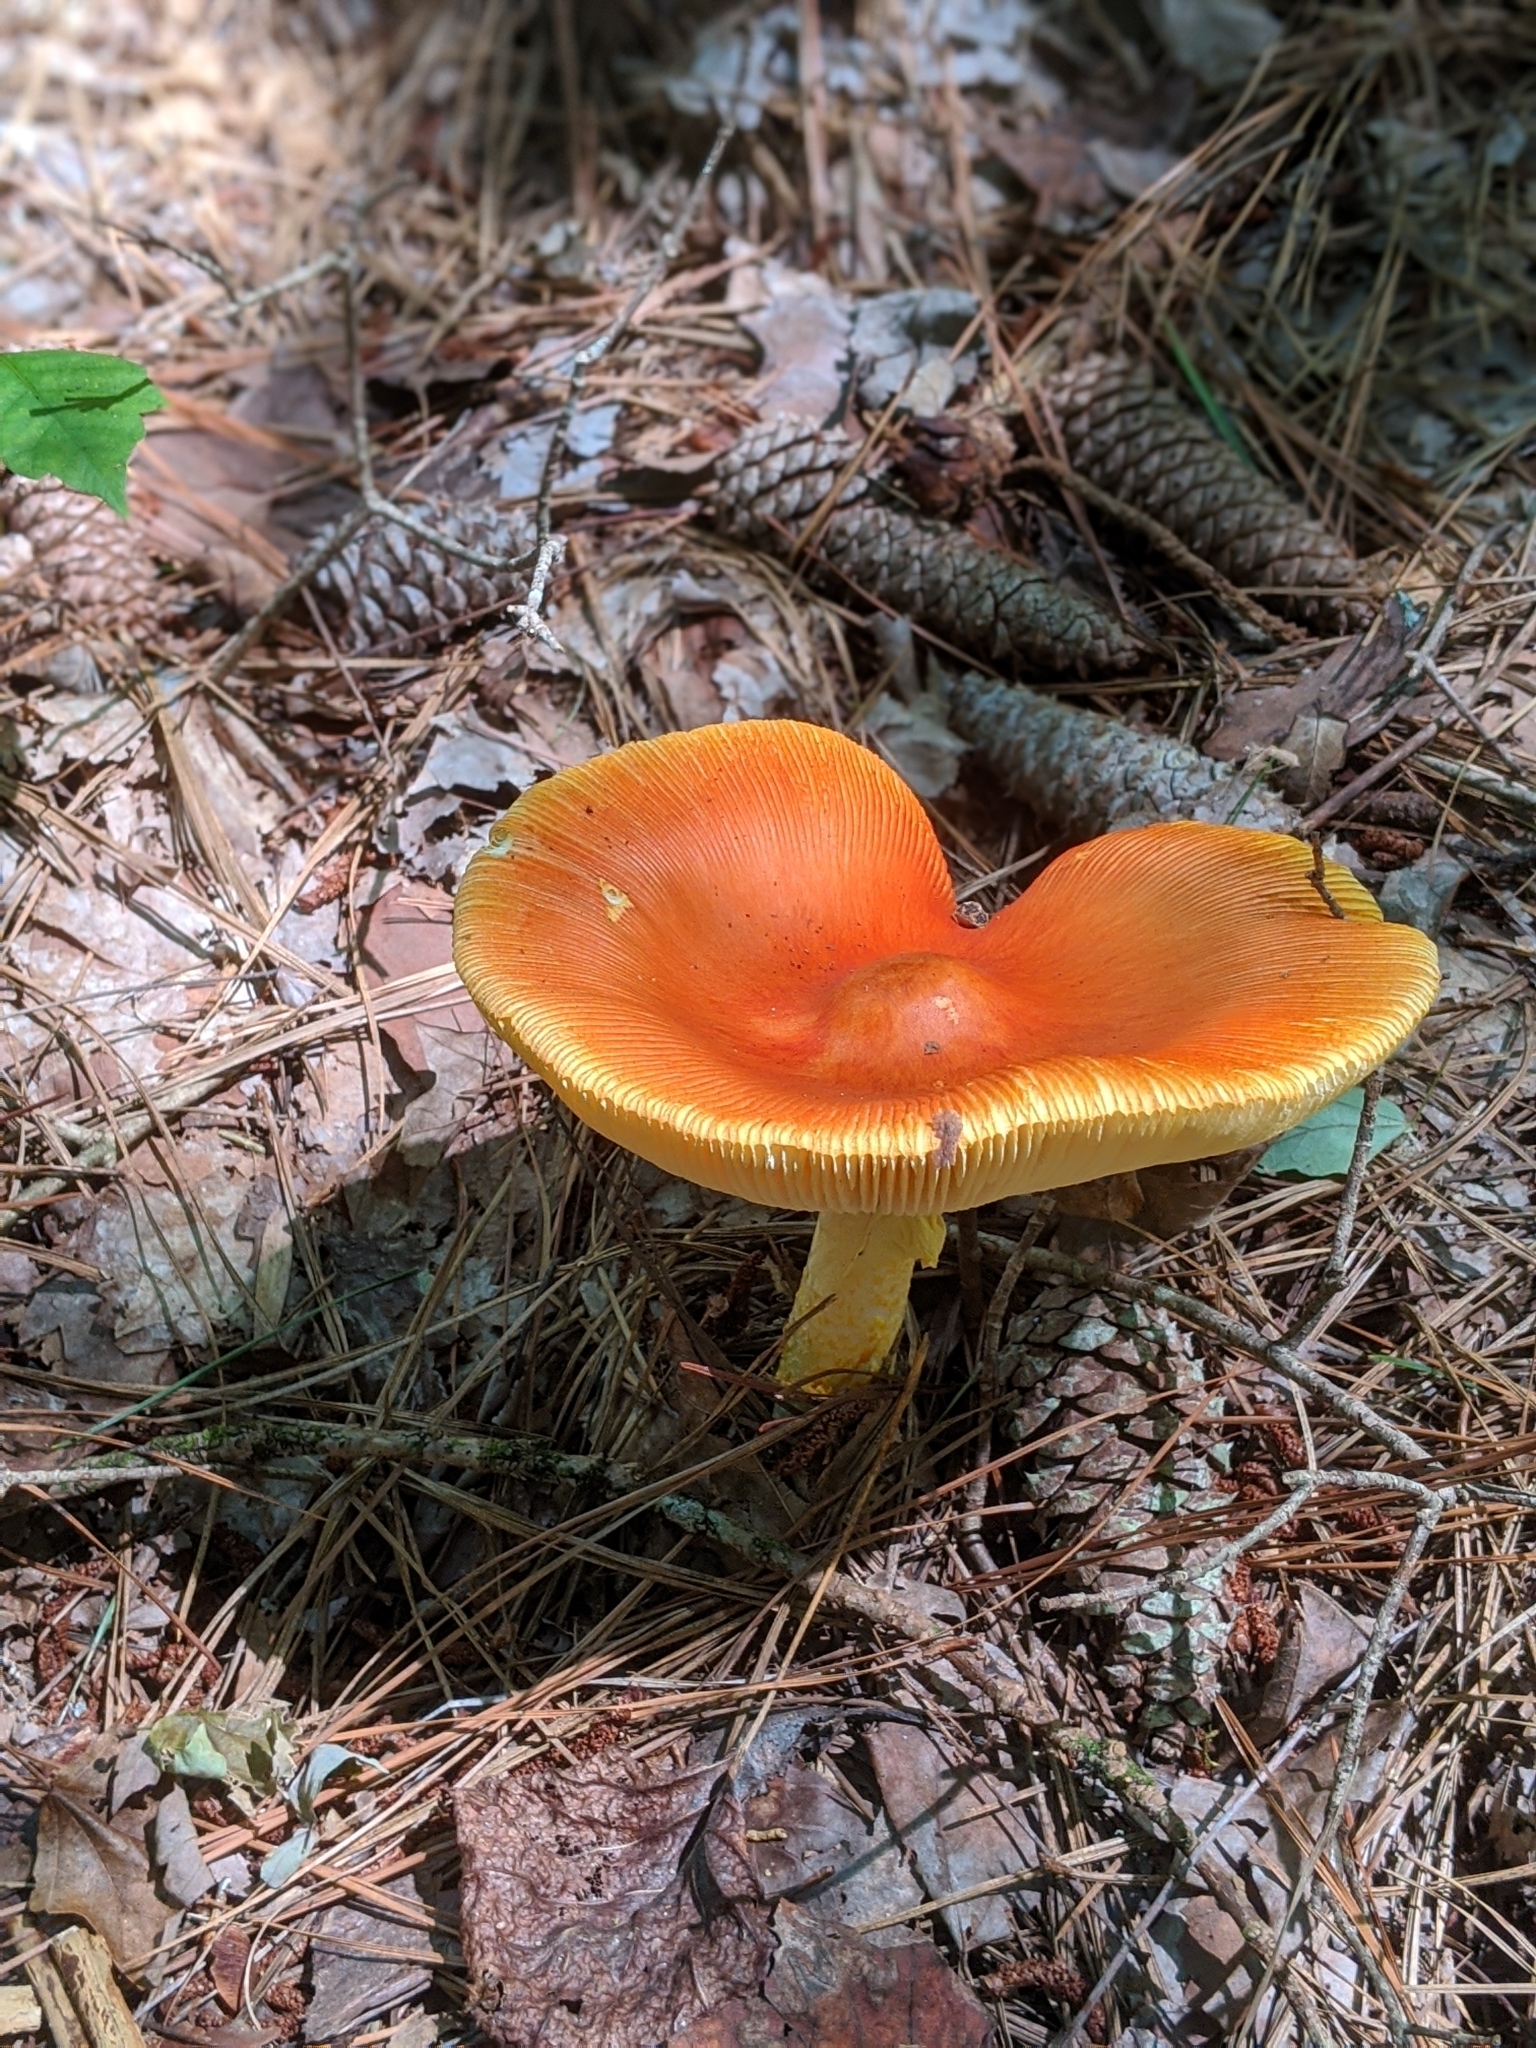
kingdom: Fungi
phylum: Basidiomycota
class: Agaricomycetes
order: Agaricales
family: Amanitaceae
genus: Amanita
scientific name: Amanita jacksonii
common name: Jackson's slender caesar
